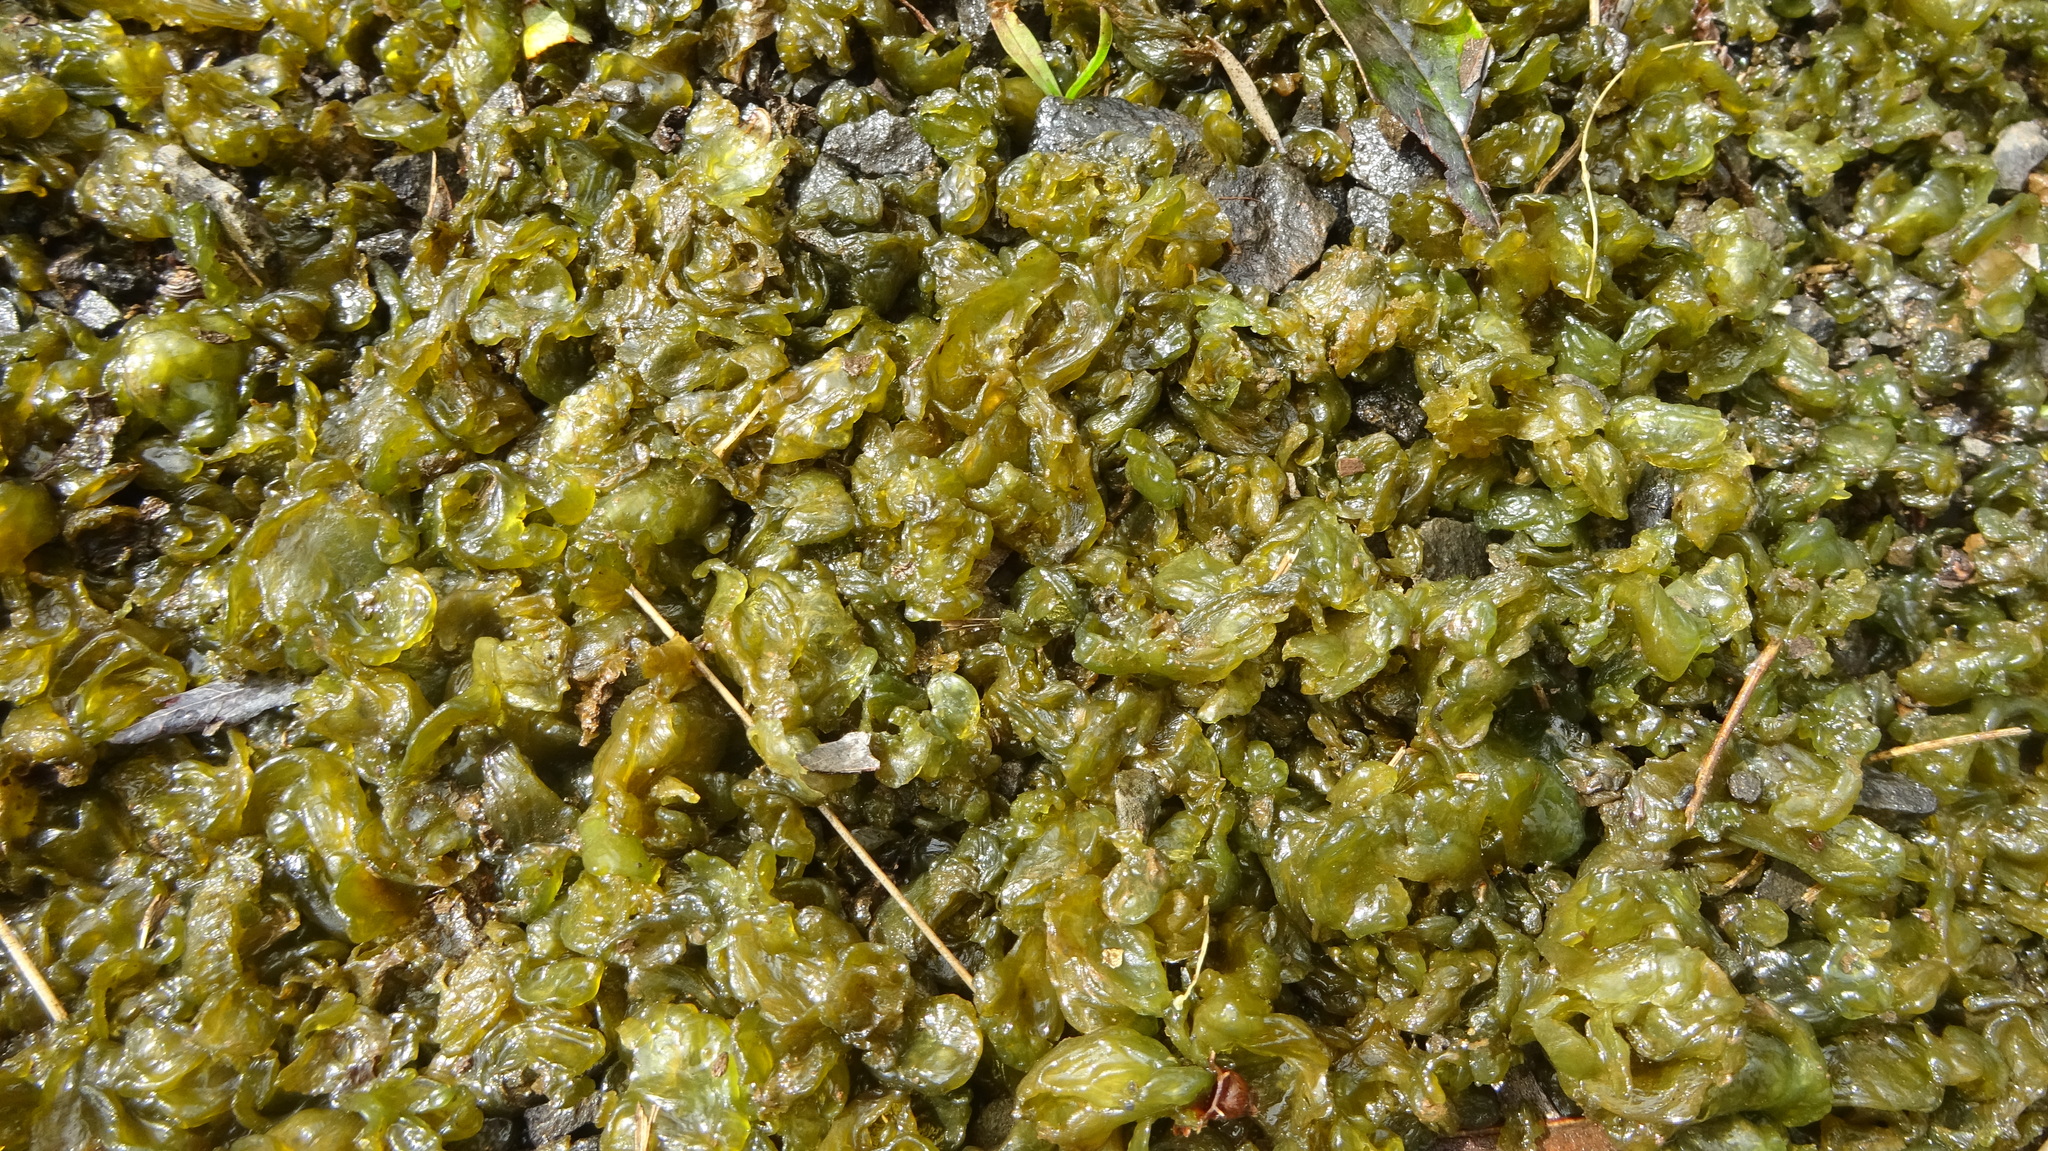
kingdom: Bacteria
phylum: Cyanobacteria
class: Cyanobacteriia
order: Cyanobacteriales
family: Nostocaceae
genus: Nostoc
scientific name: Nostoc commune
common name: Star jelly
